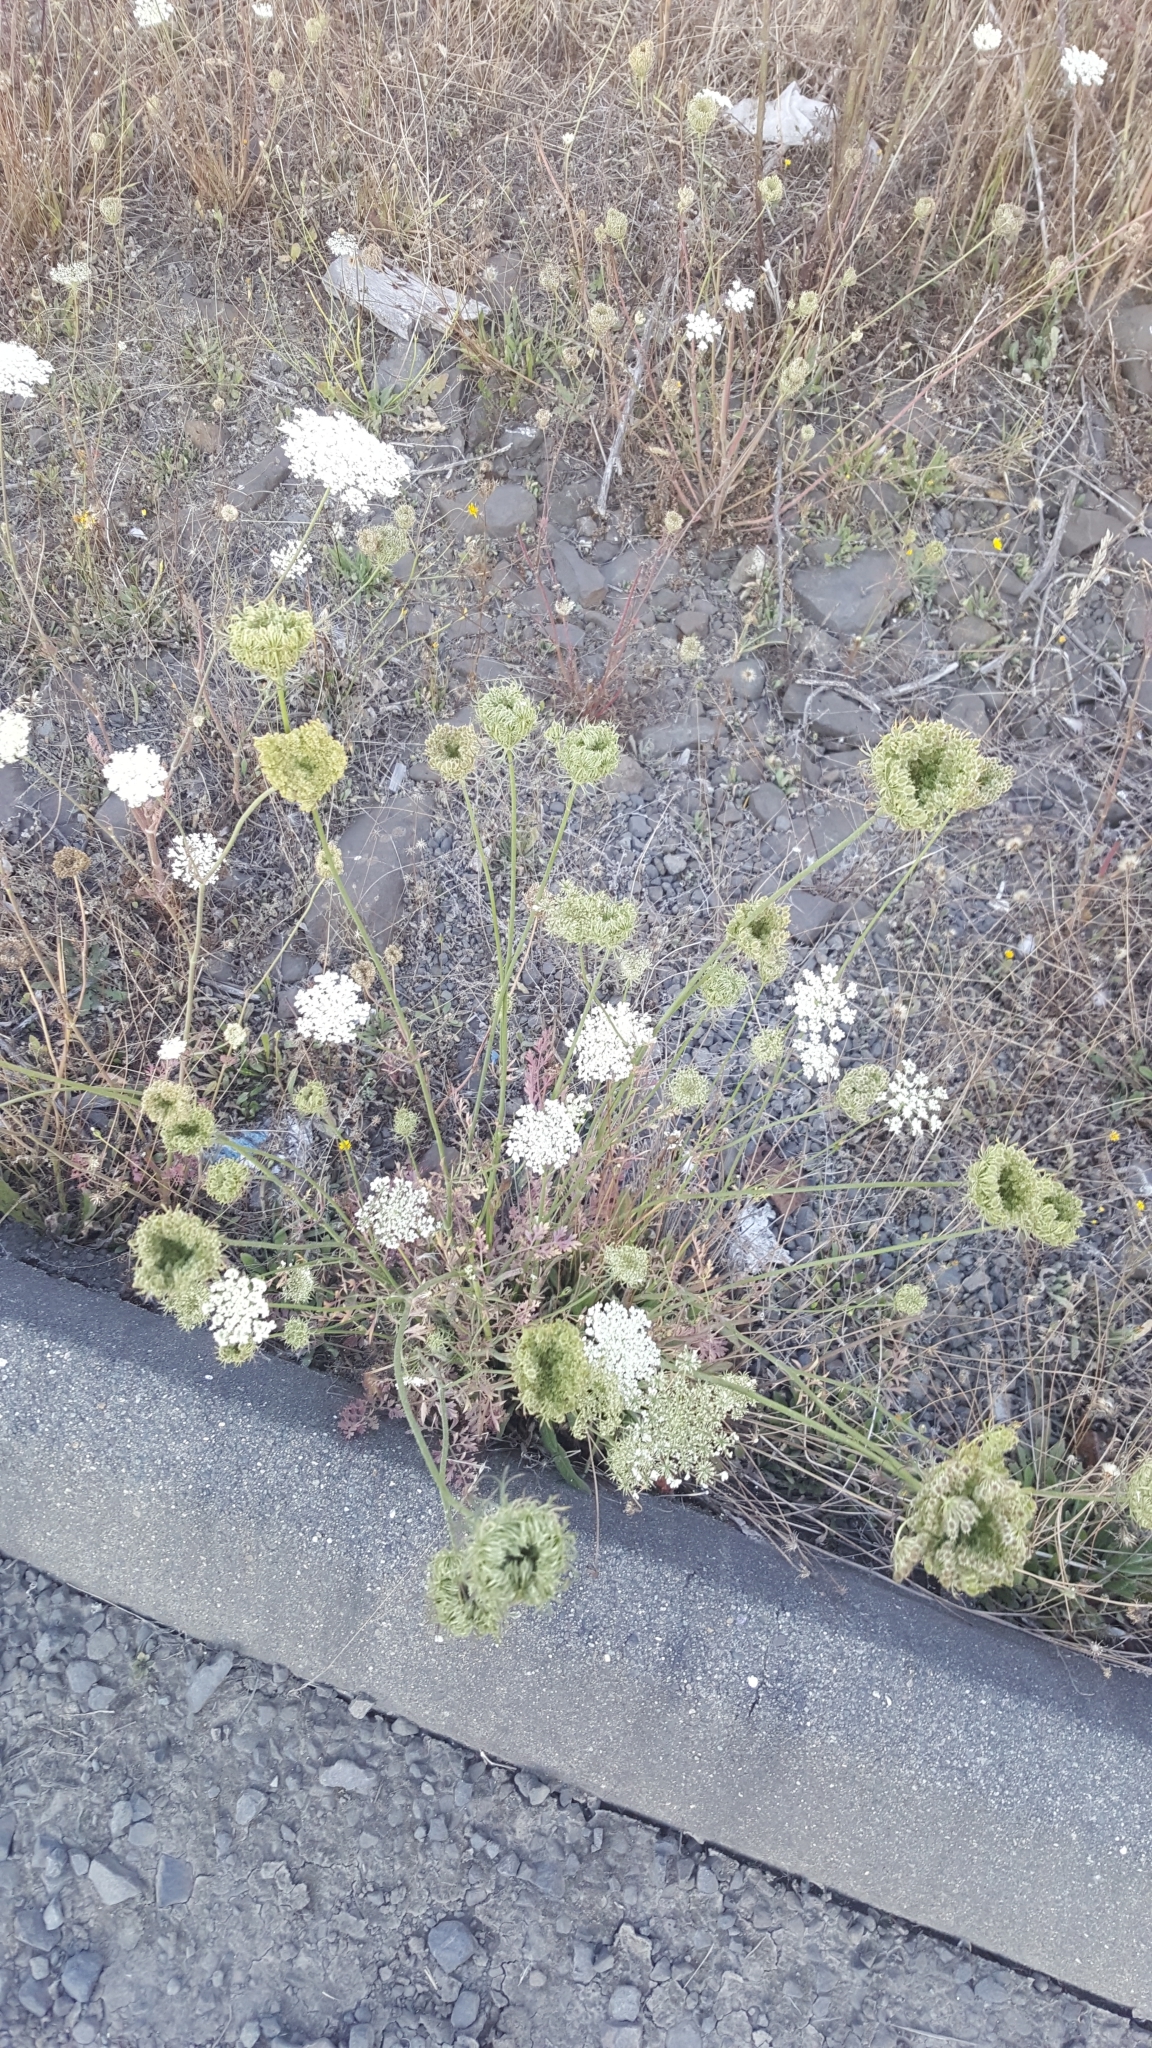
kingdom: Plantae
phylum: Tracheophyta
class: Magnoliopsida
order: Apiales
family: Apiaceae
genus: Daucus
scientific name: Daucus carota
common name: Wild carrot
